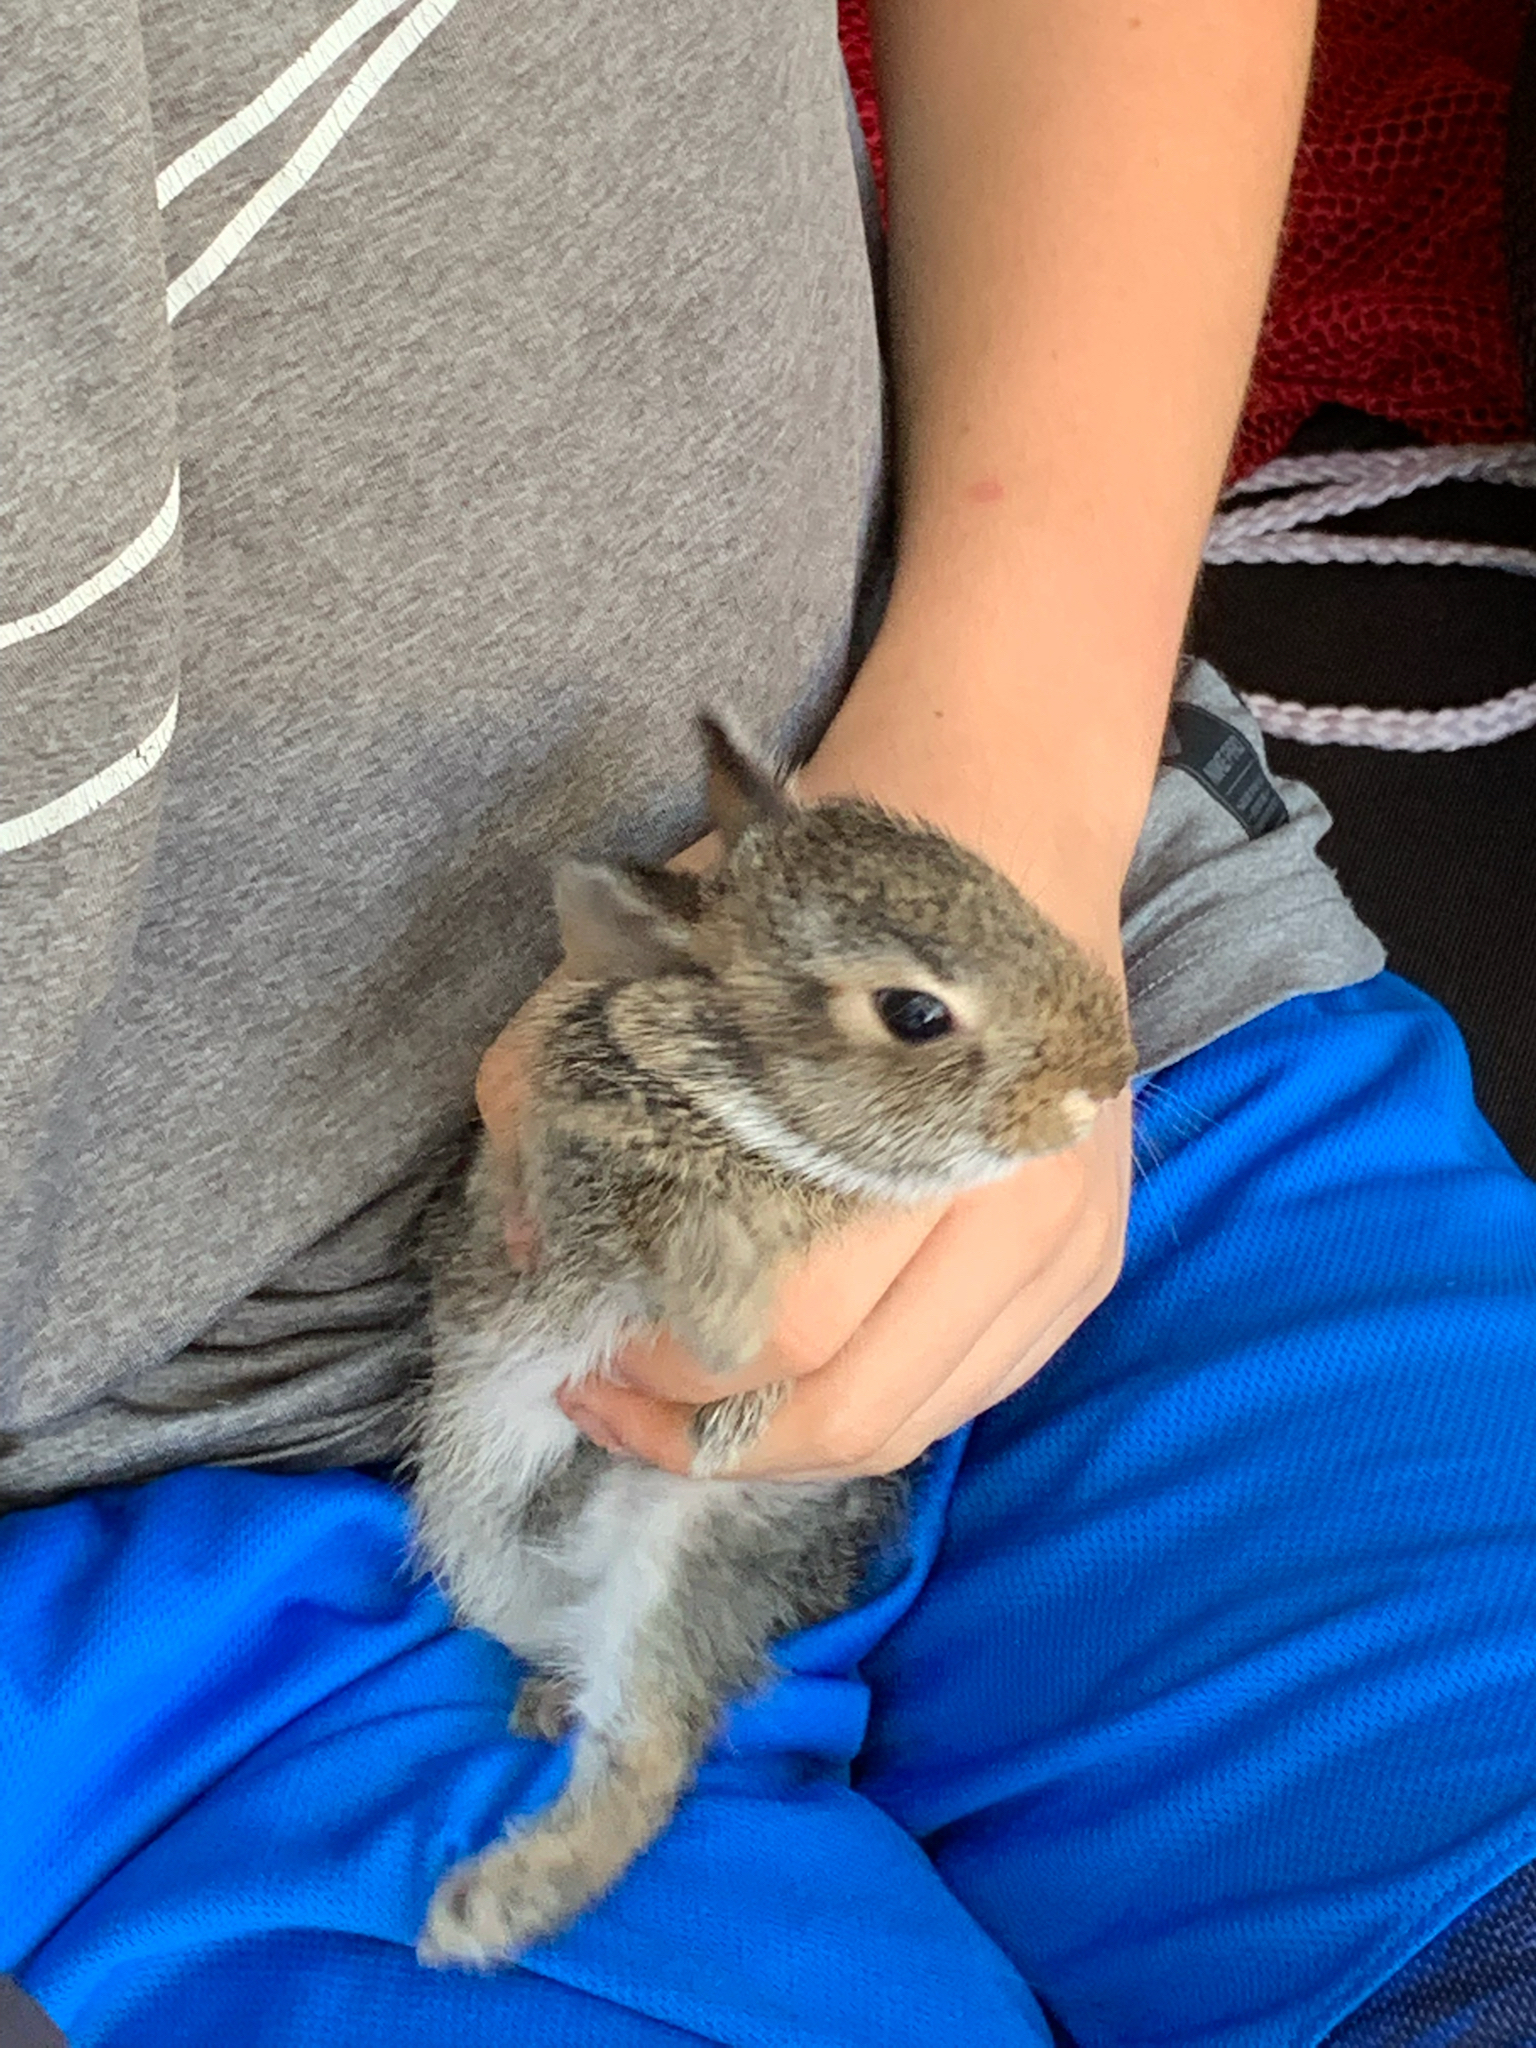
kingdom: Animalia
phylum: Chordata
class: Mammalia
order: Lagomorpha
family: Leporidae
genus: Sylvilagus
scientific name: Sylvilagus floridanus
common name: Eastern cottontail
